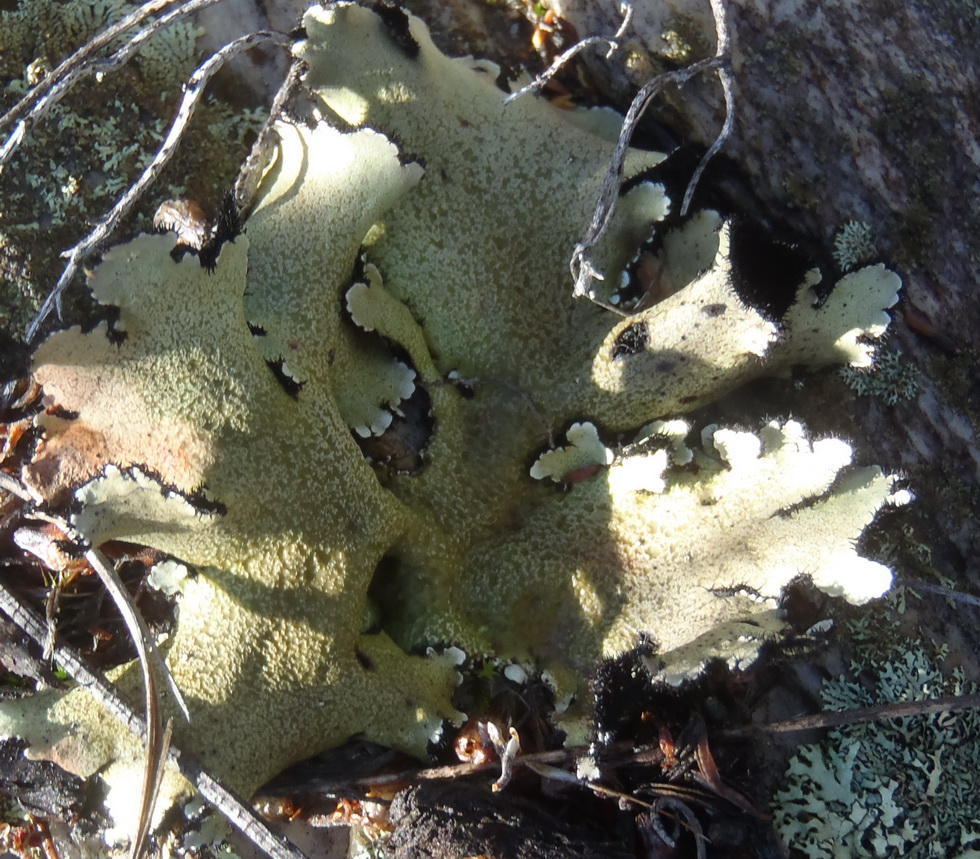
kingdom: Fungi
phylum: Ascomycota
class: Lecanoromycetes
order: Lecanorales
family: Parmeliaceae
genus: Xanthoparmelia
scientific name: Xanthoparmelia hottentotta
